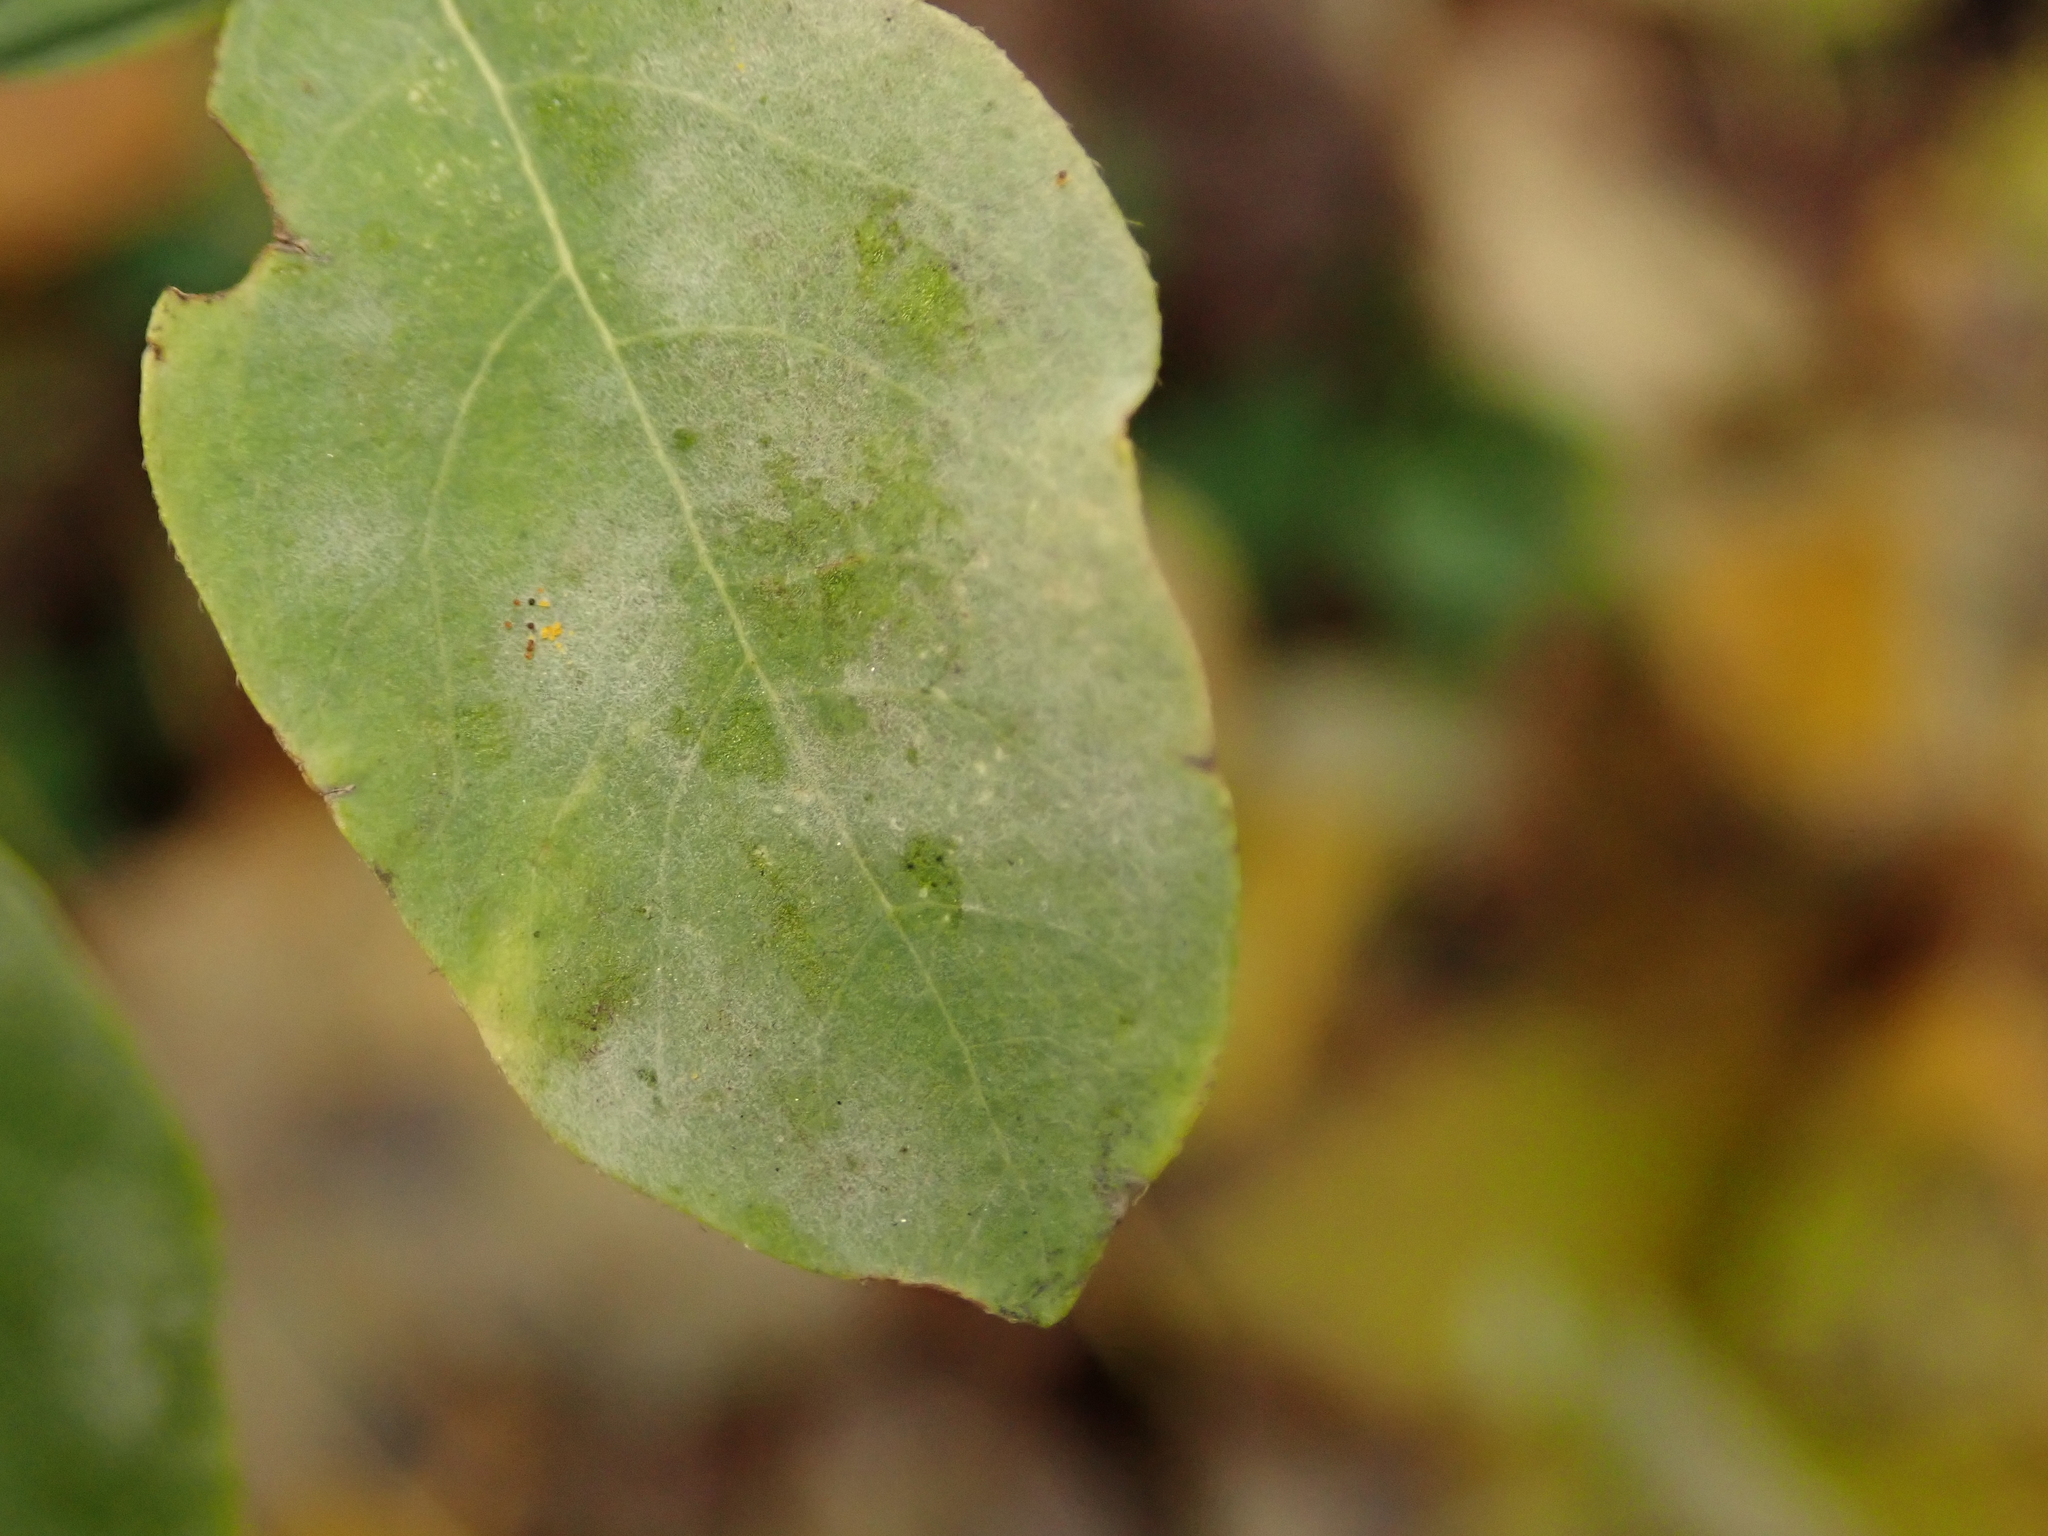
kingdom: Fungi
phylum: Ascomycota
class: Leotiomycetes
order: Helotiales
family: Erysiphaceae
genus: Erysiphe
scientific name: Erysiphe symphoricarpi
